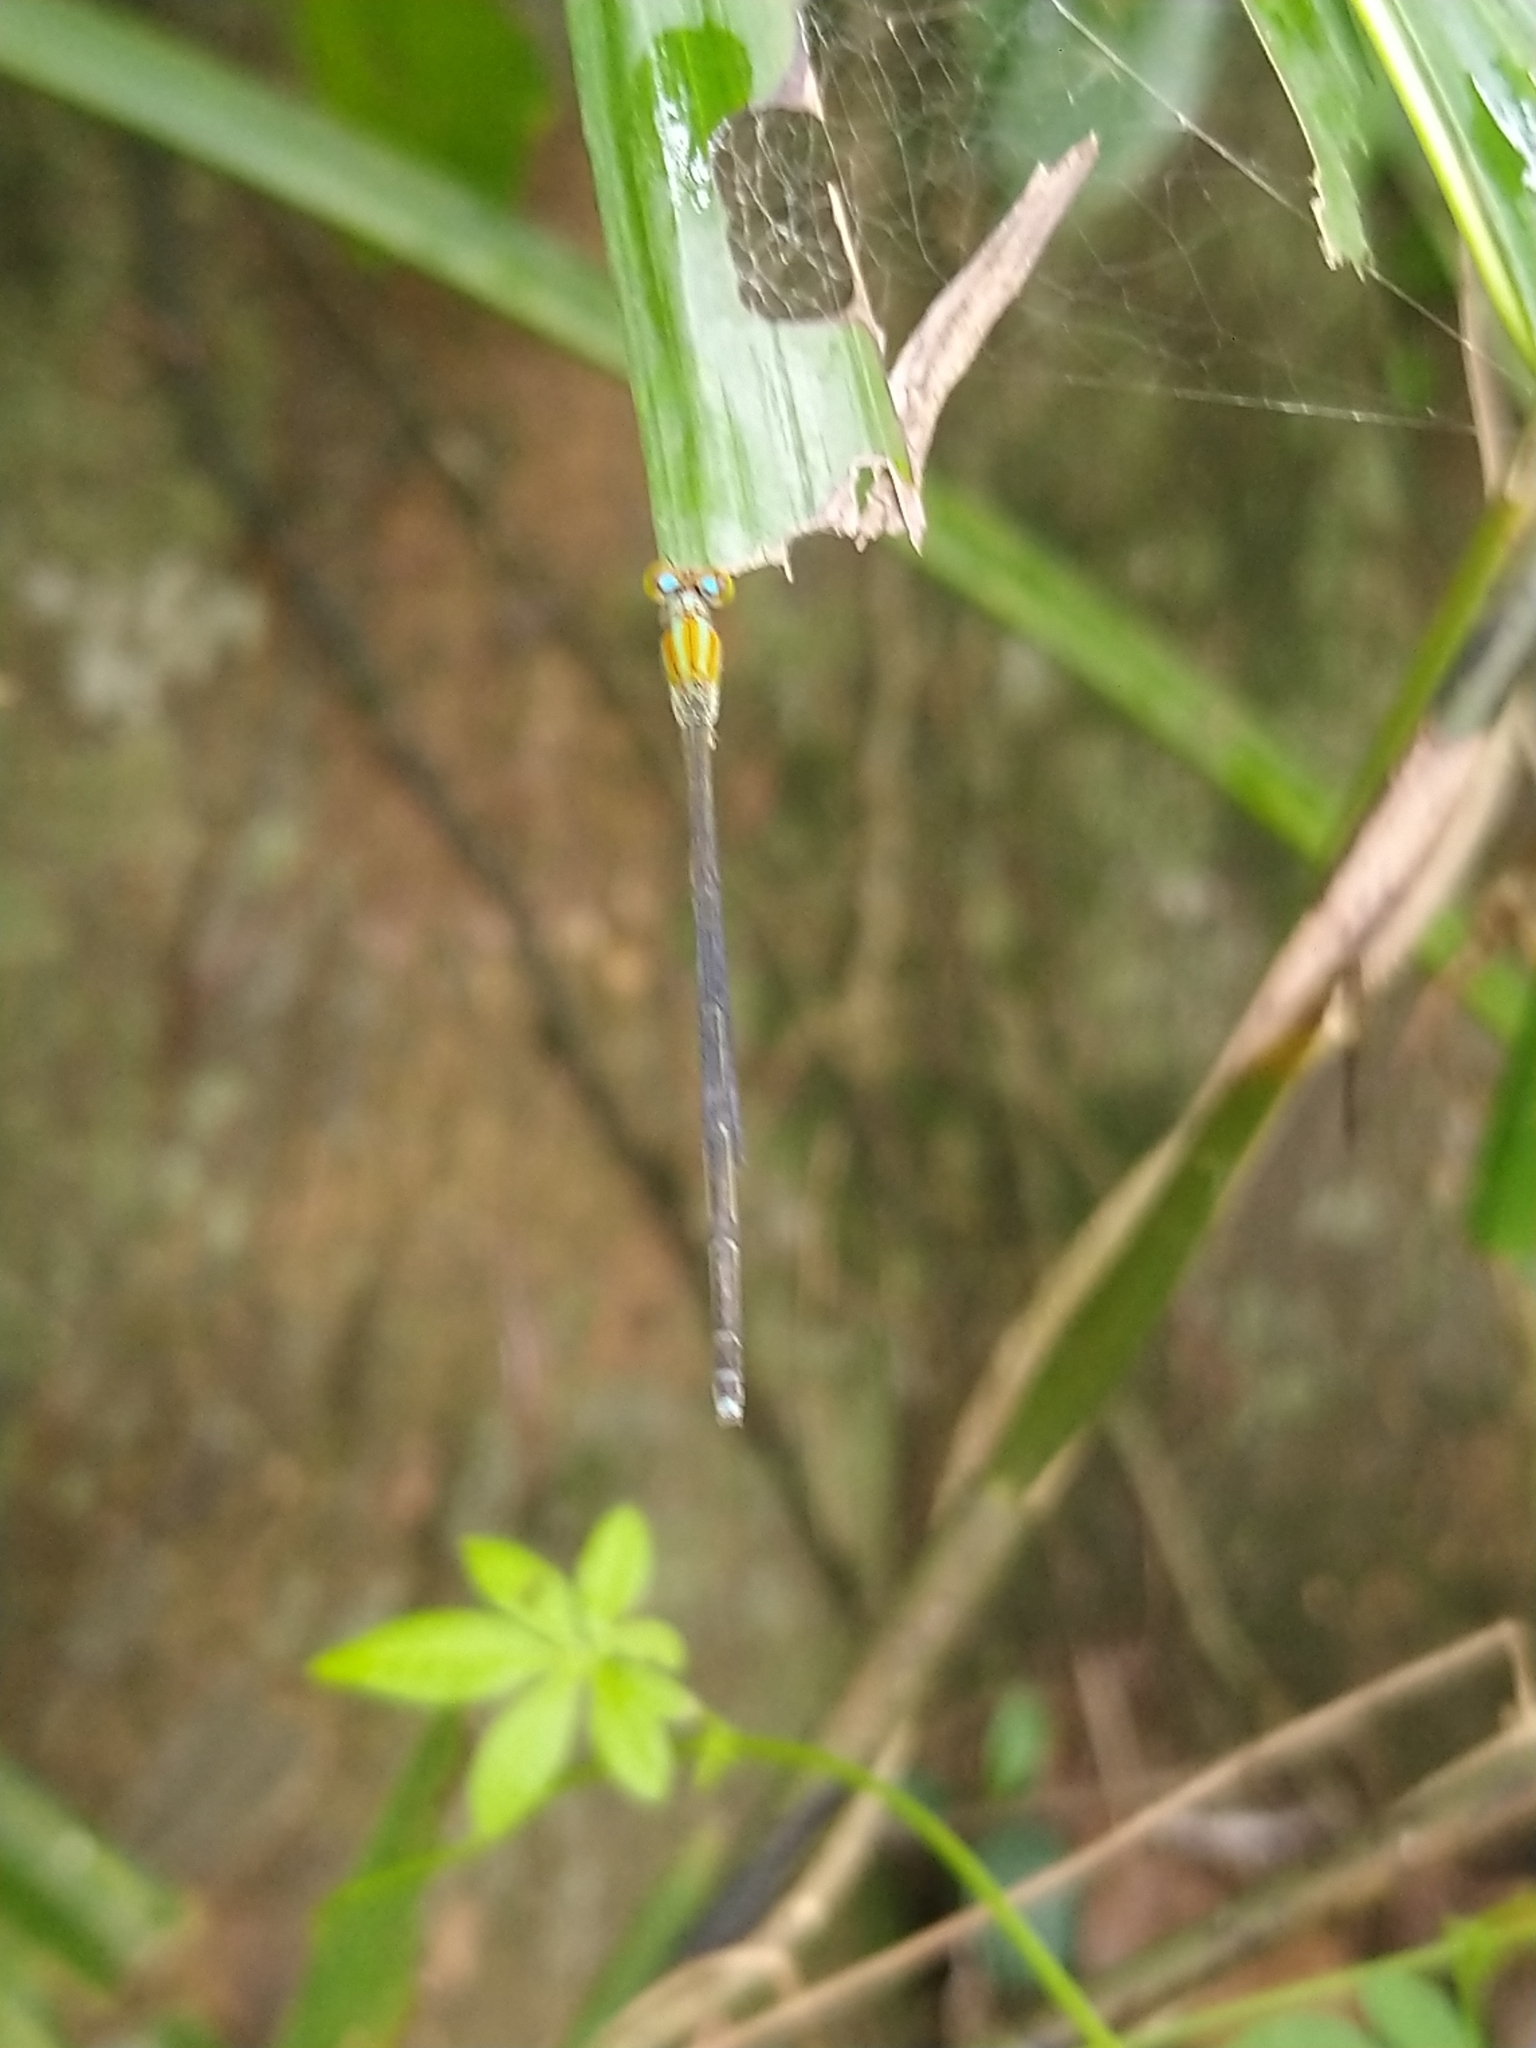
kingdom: Animalia
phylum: Arthropoda
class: Insecta
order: Odonata
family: Coenagrionidae
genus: Pseudagrion
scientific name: Pseudagrion microcephalum
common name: Blue riverdamsel
